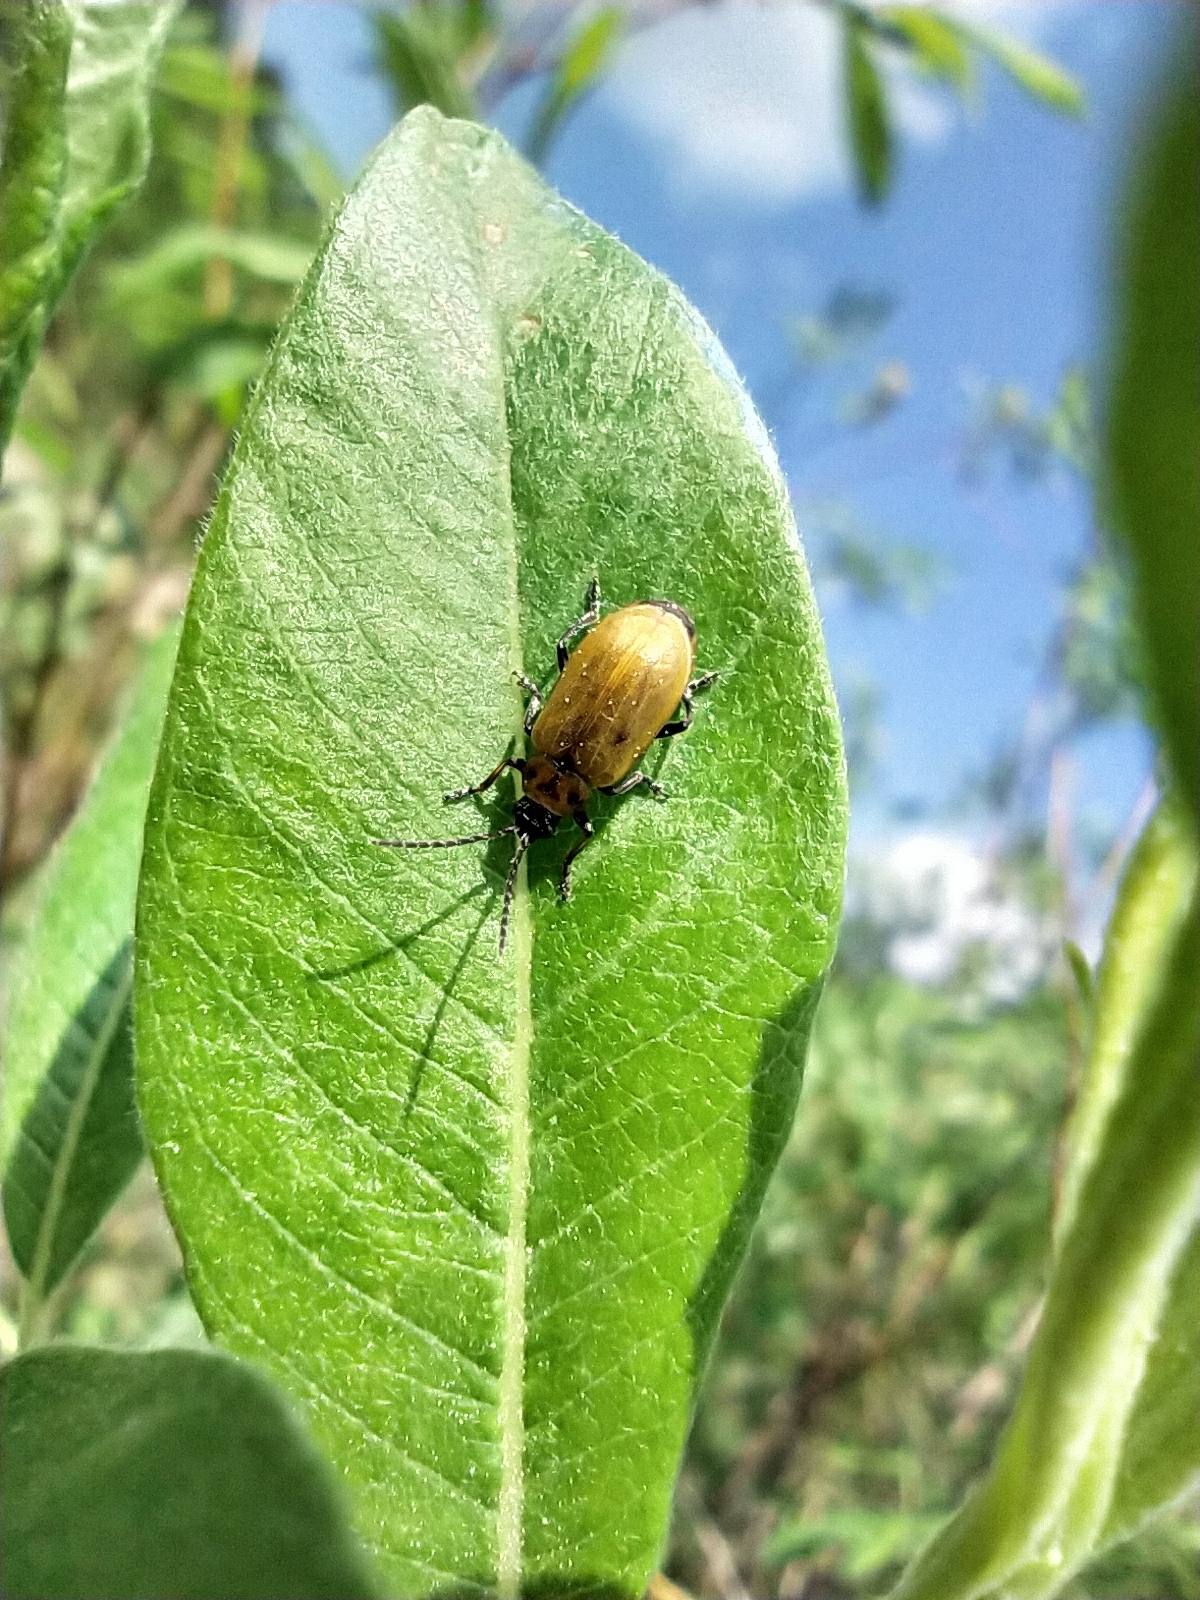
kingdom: Animalia
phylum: Arthropoda
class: Insecta
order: Coleoptera
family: Chrysomelidae
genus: Lochmaea
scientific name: Lochmaea caprea
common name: Willow leaf beetle
